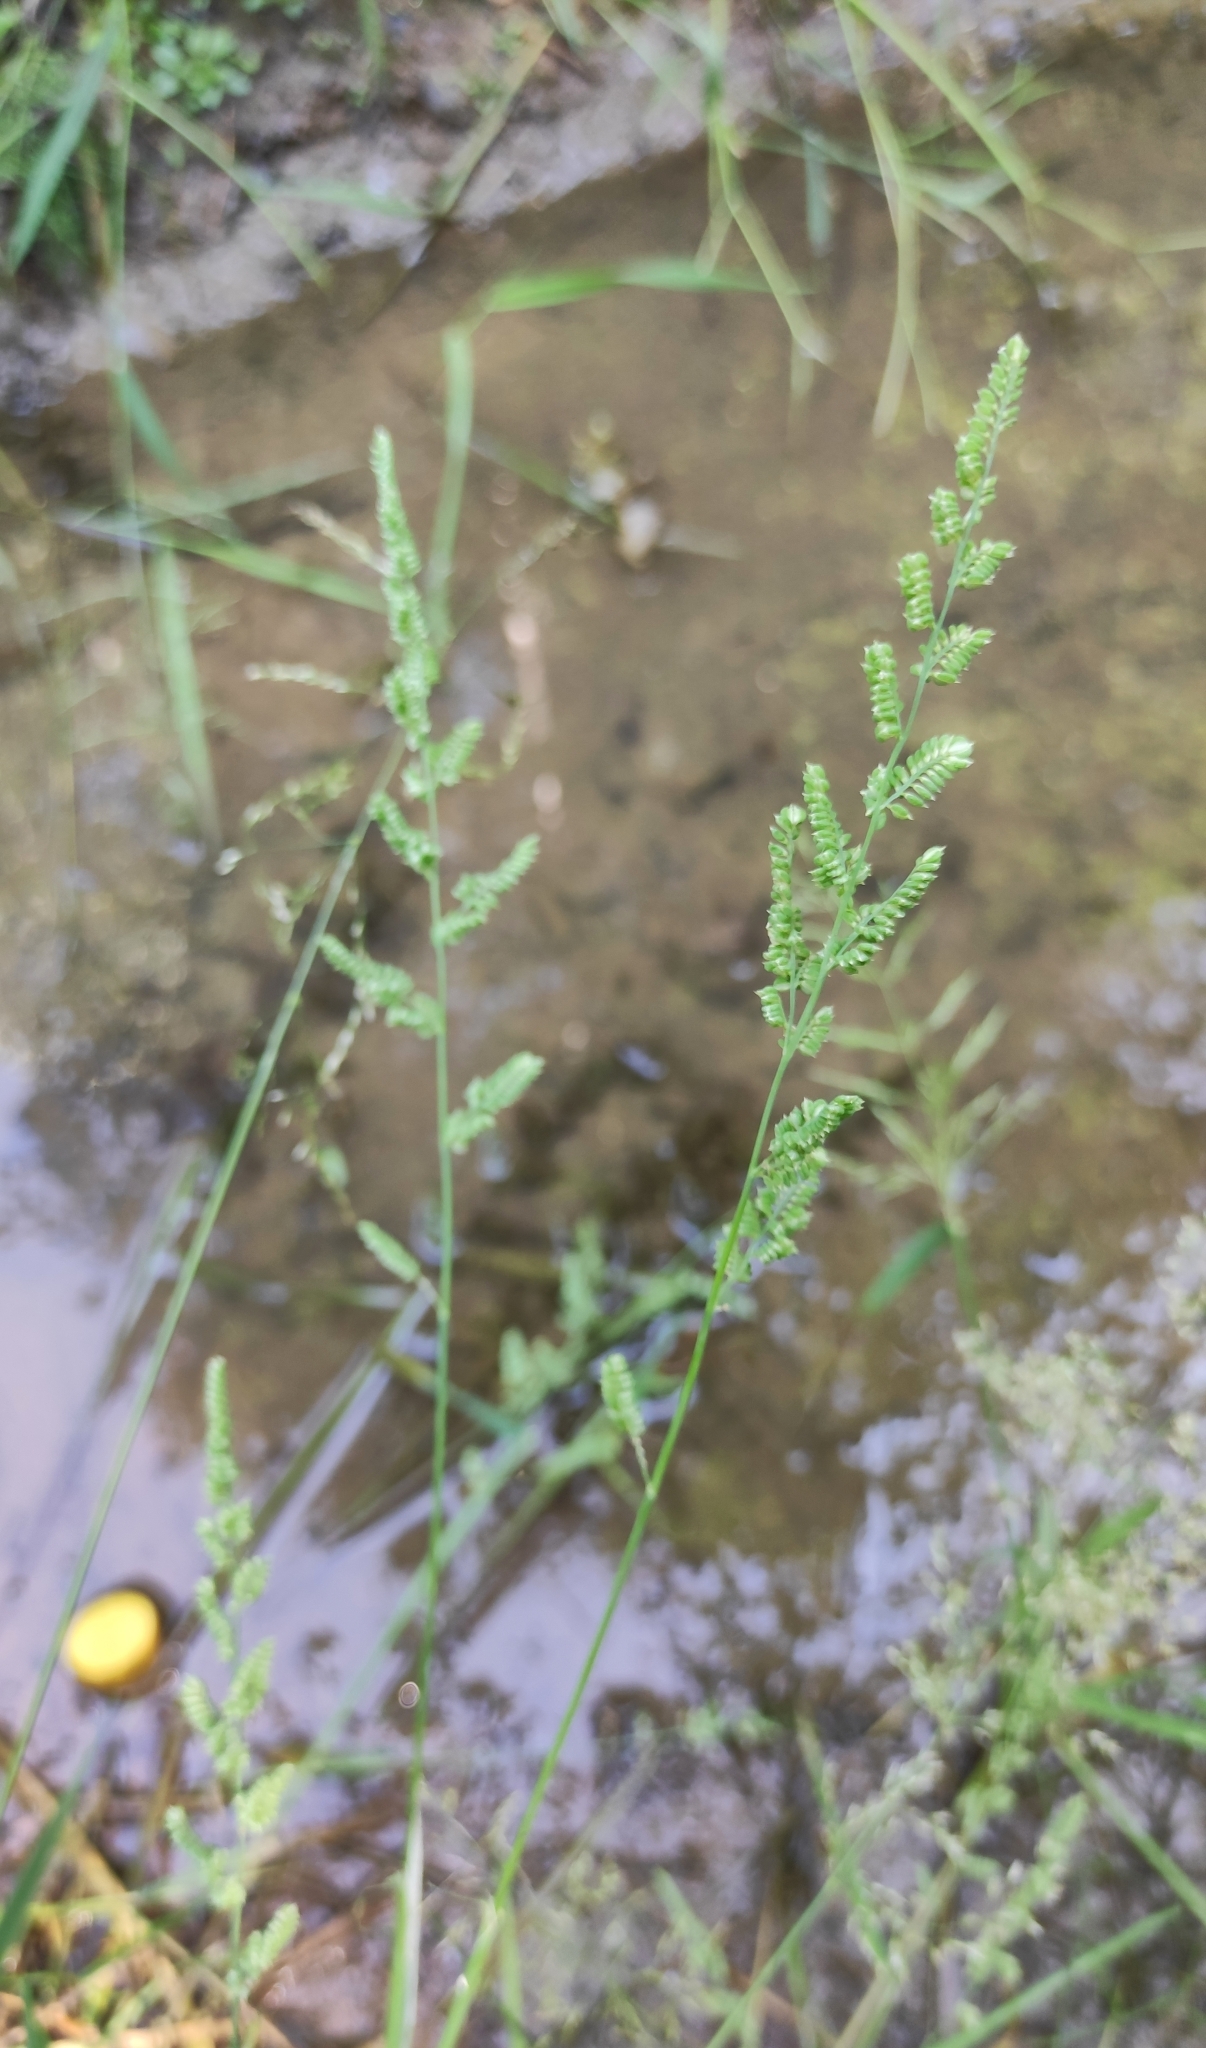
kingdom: Plantae
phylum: Tracheophyta
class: Liliopsida
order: Poales
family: Poaceae
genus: Beckmannia
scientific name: Beckmannia syzigachne
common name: American slough-grass
